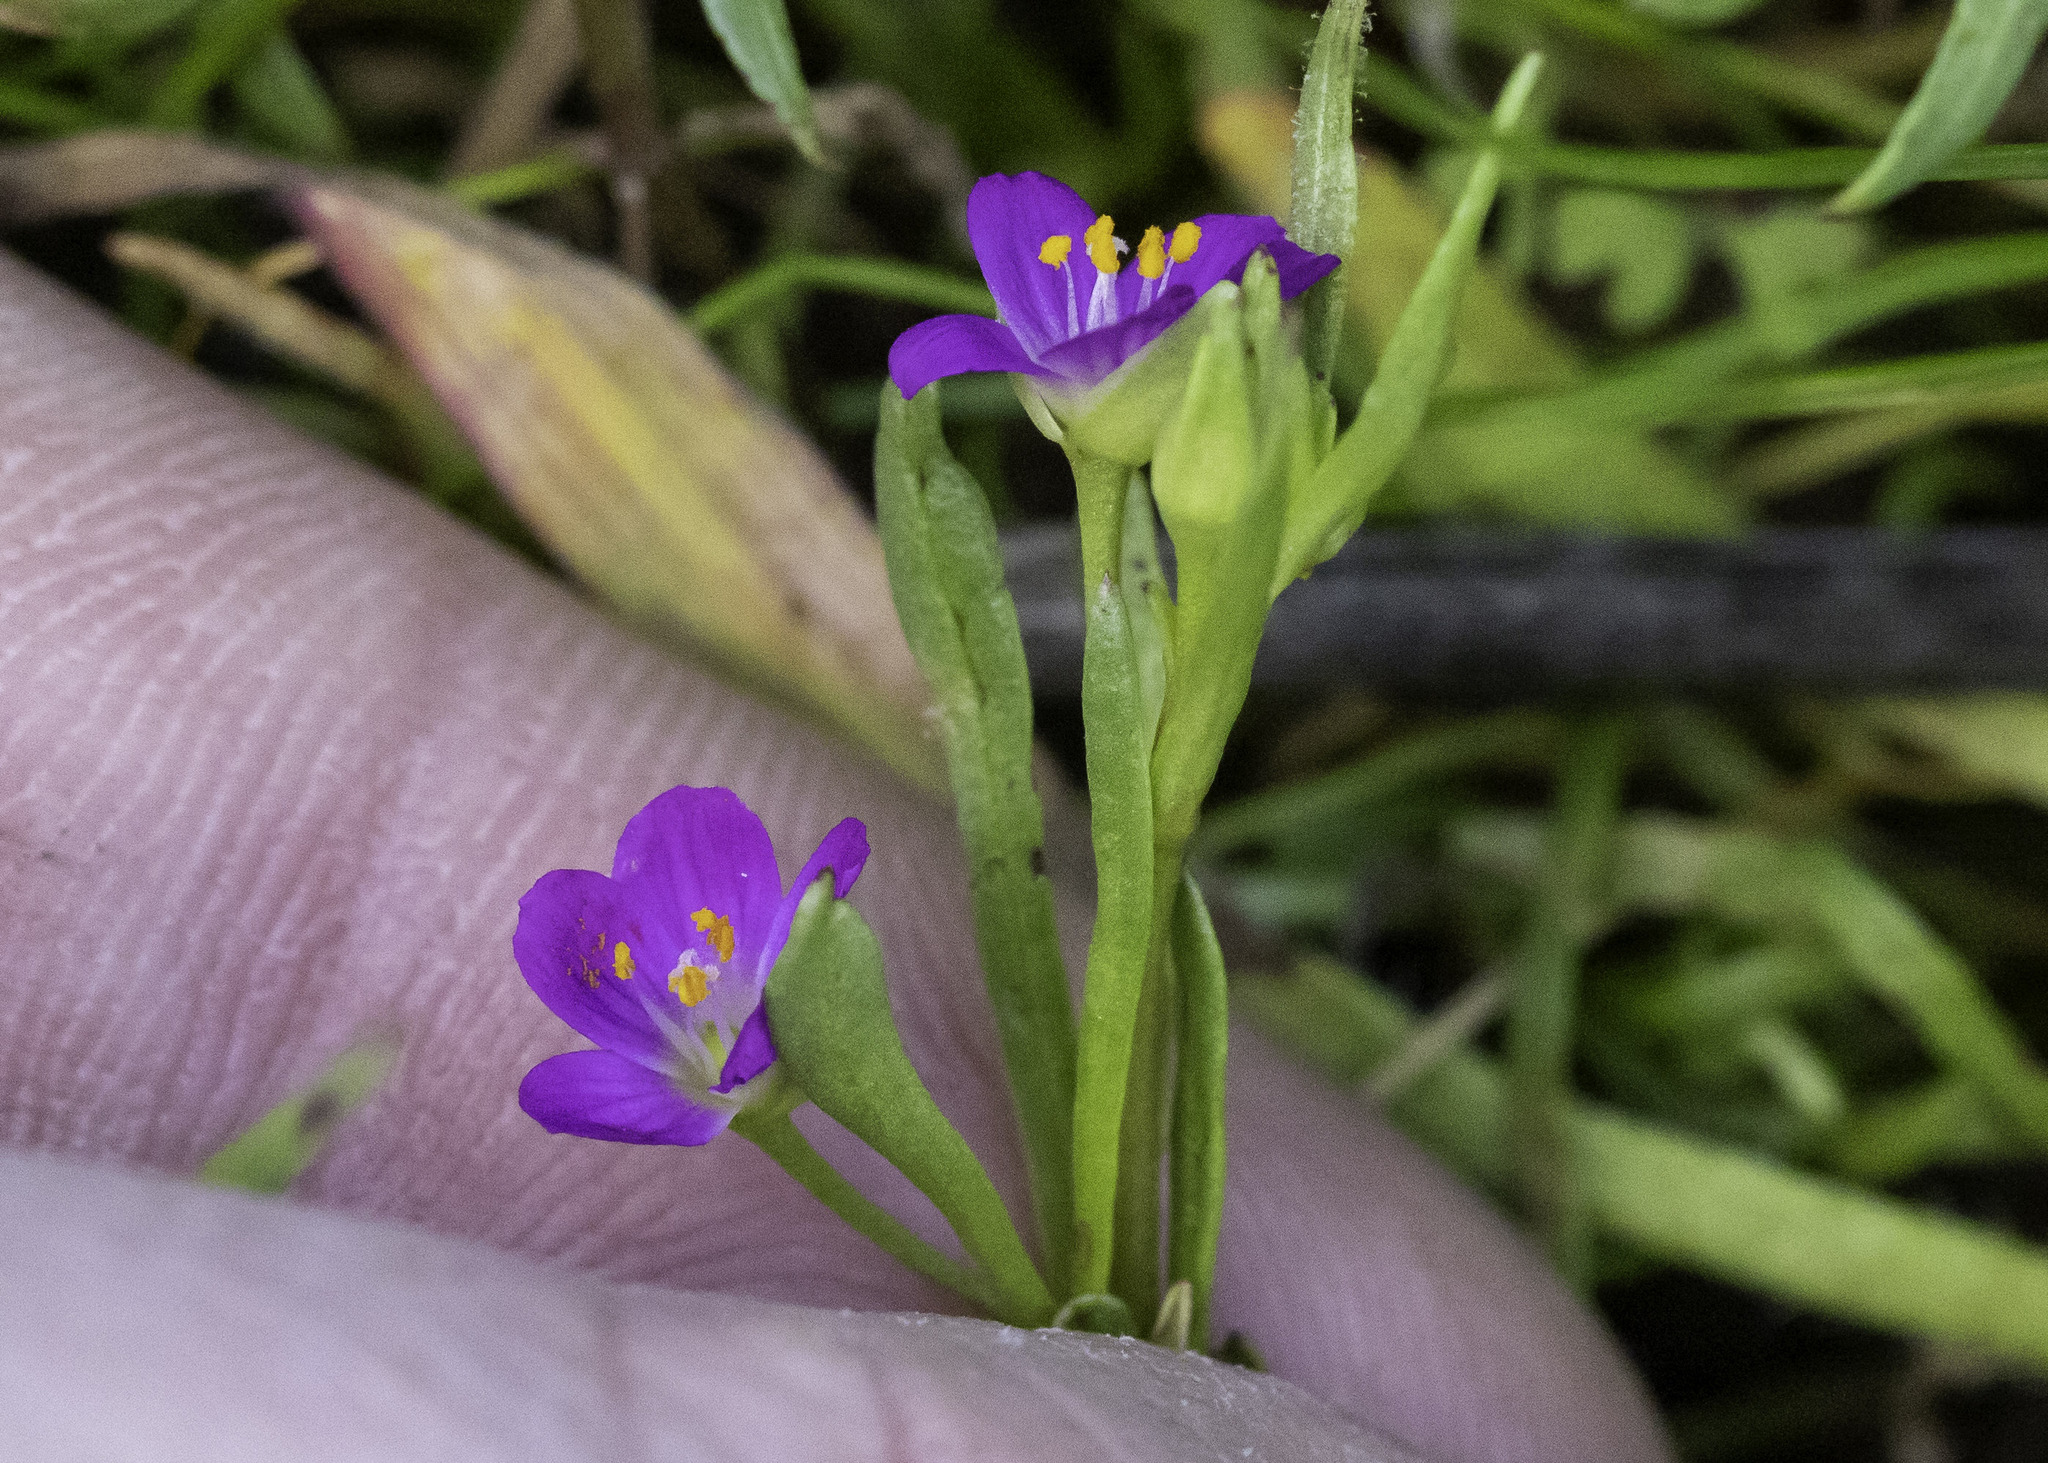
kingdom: Plantae
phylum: Tracheophyta
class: Magnoliopsida
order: Caryophyllales
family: Montiaceae
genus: Calandrinia
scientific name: Calandrinia menziesii
